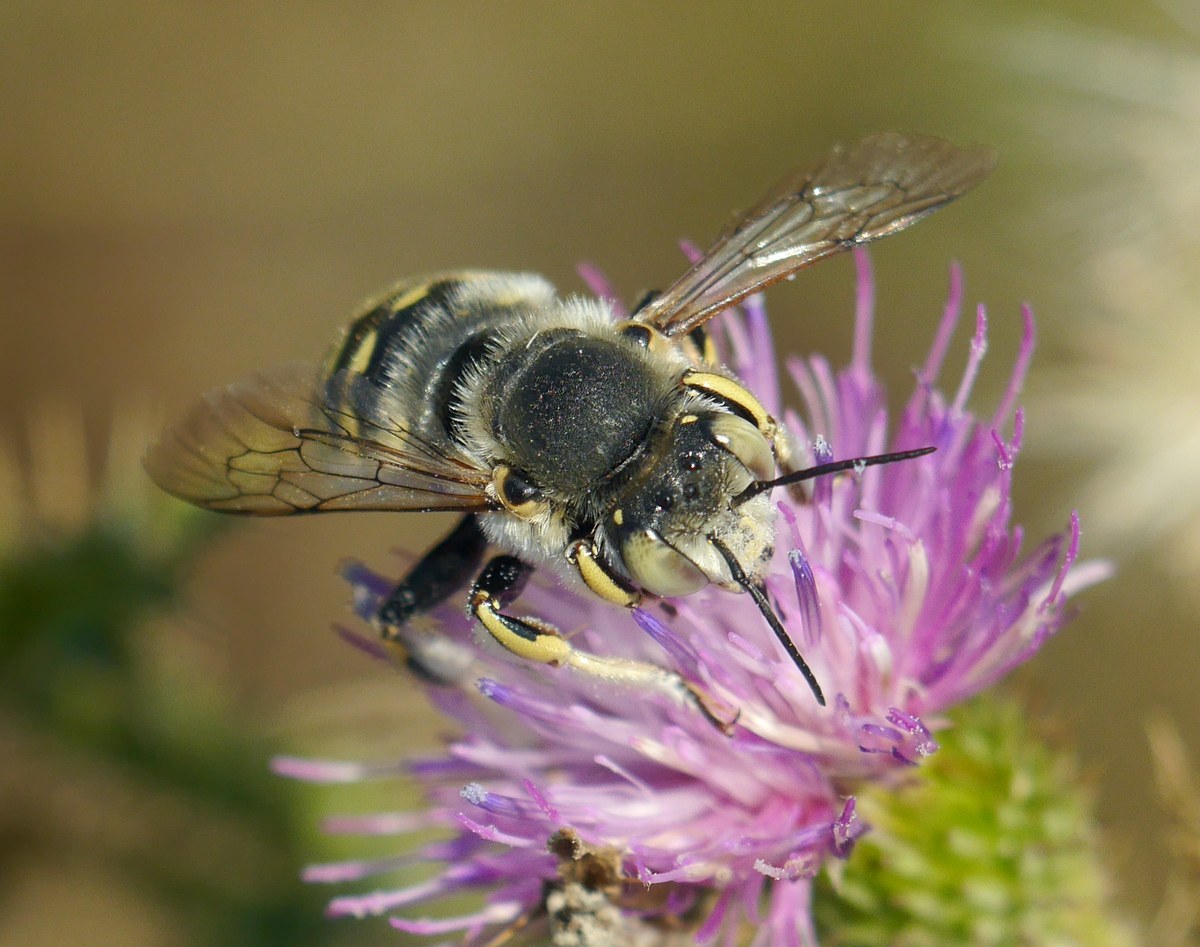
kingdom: Animalia
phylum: Arthropoda
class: Insecta
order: Hymenoptera
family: Megachilidae
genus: Anthidium
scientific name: Anthidium cingulatum
